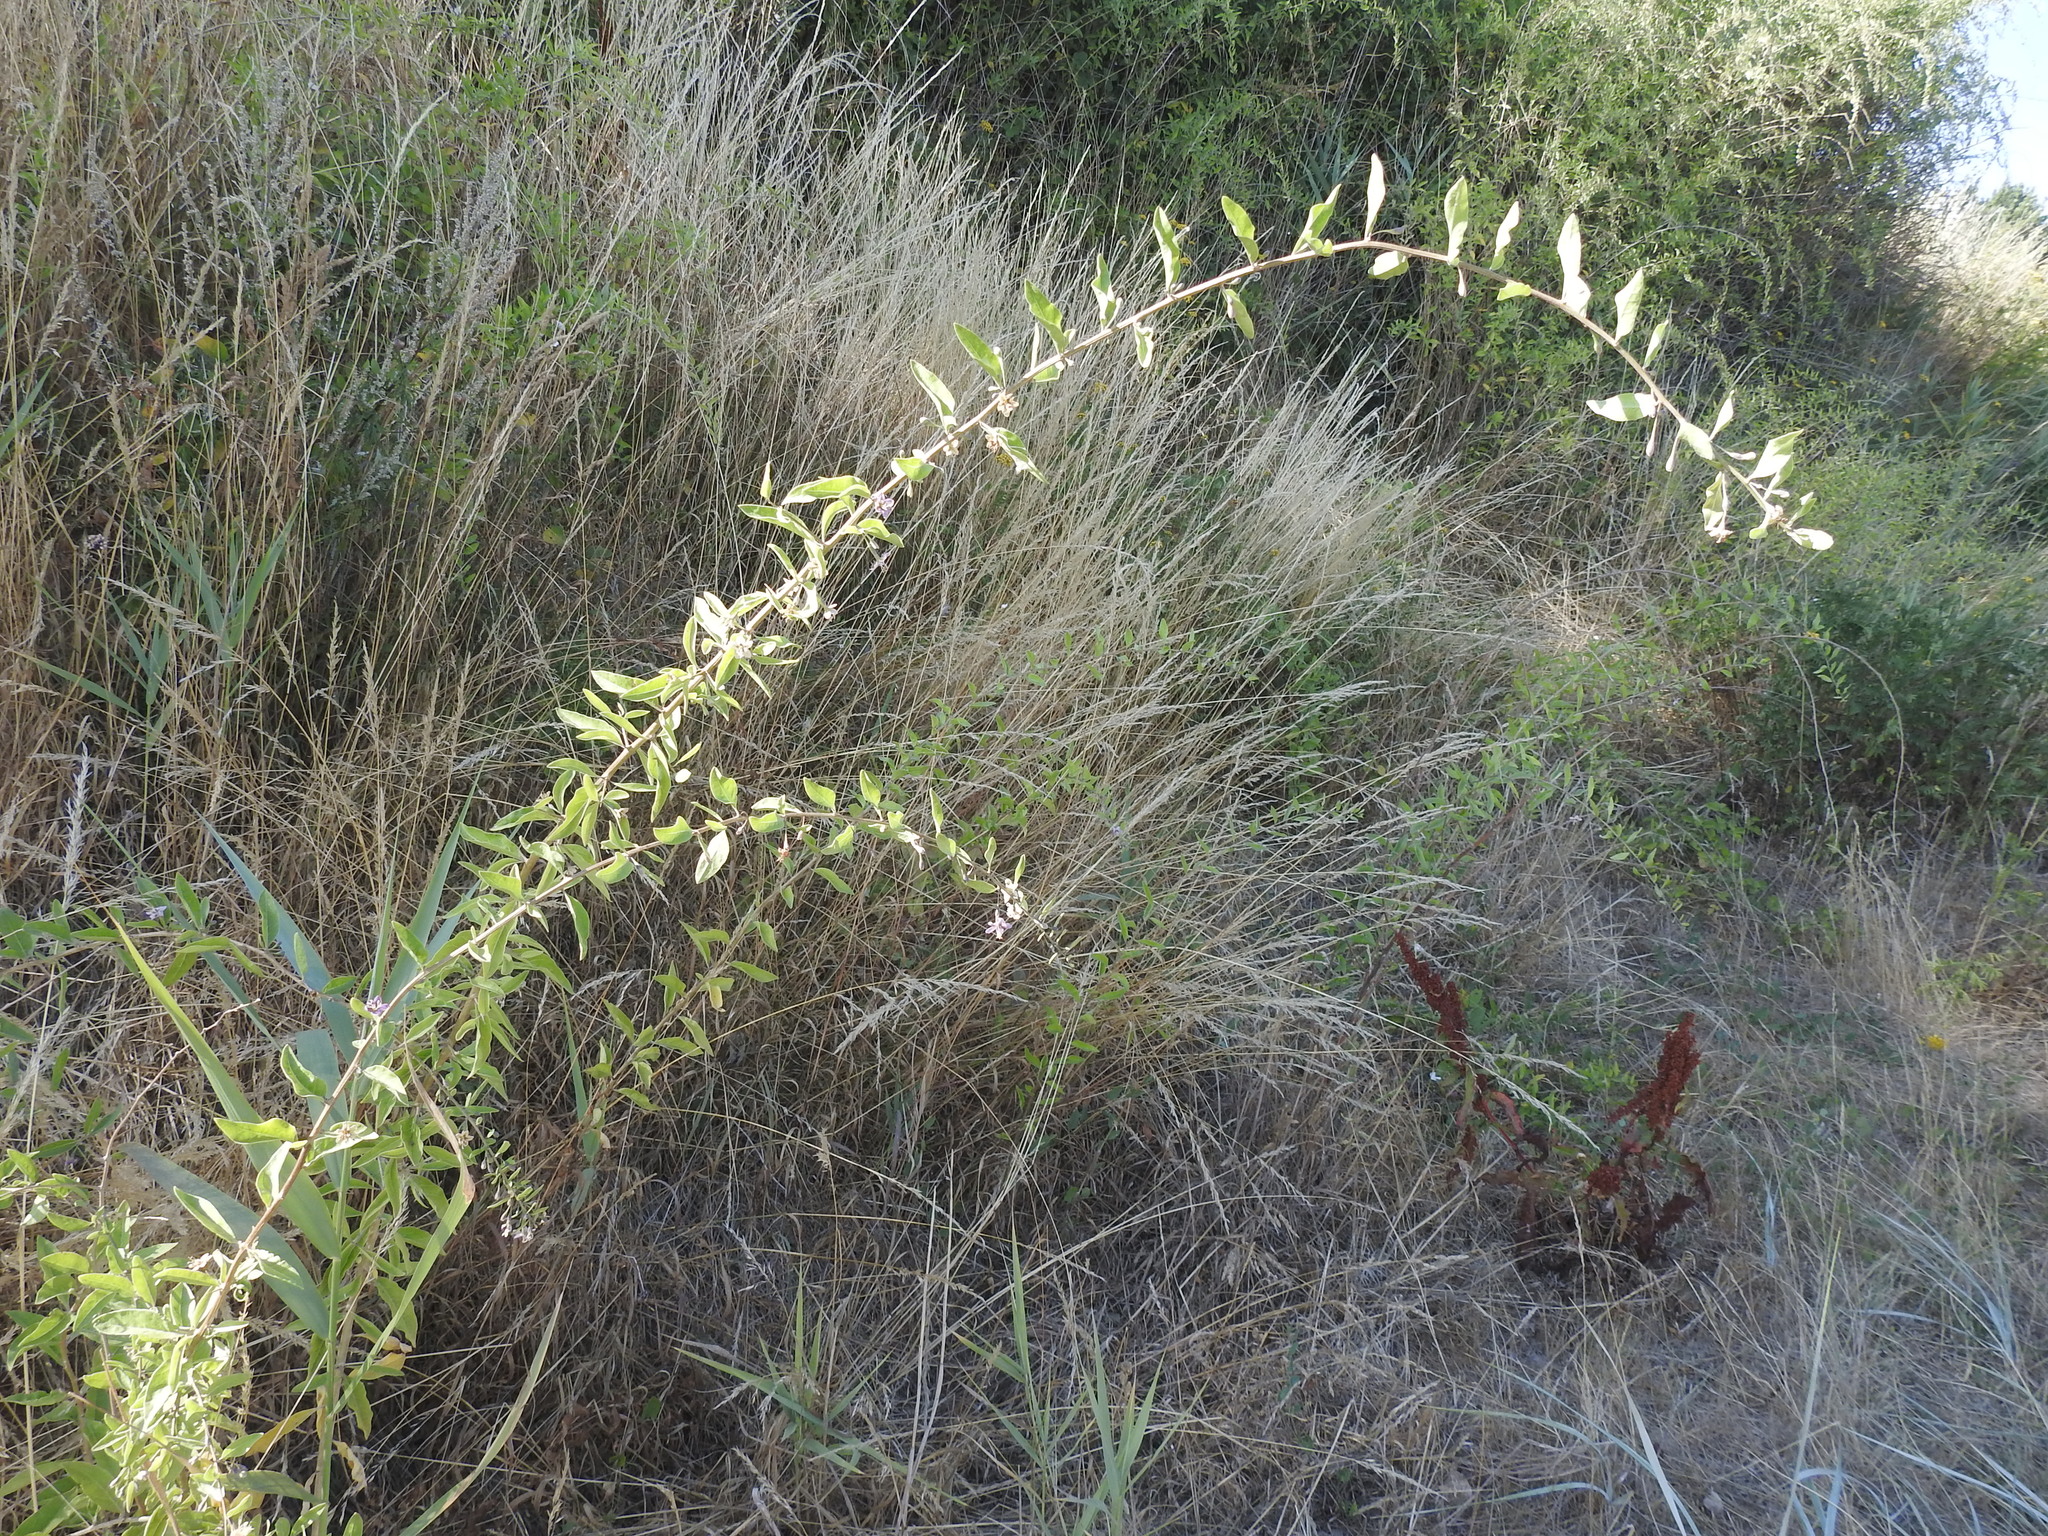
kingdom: Plantae
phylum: Tracheophyta
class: Magnoliopsida
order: Solanales
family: Solanaceae
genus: Lycium
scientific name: Lycium barbarum
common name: Duke of argyll's teaplant
